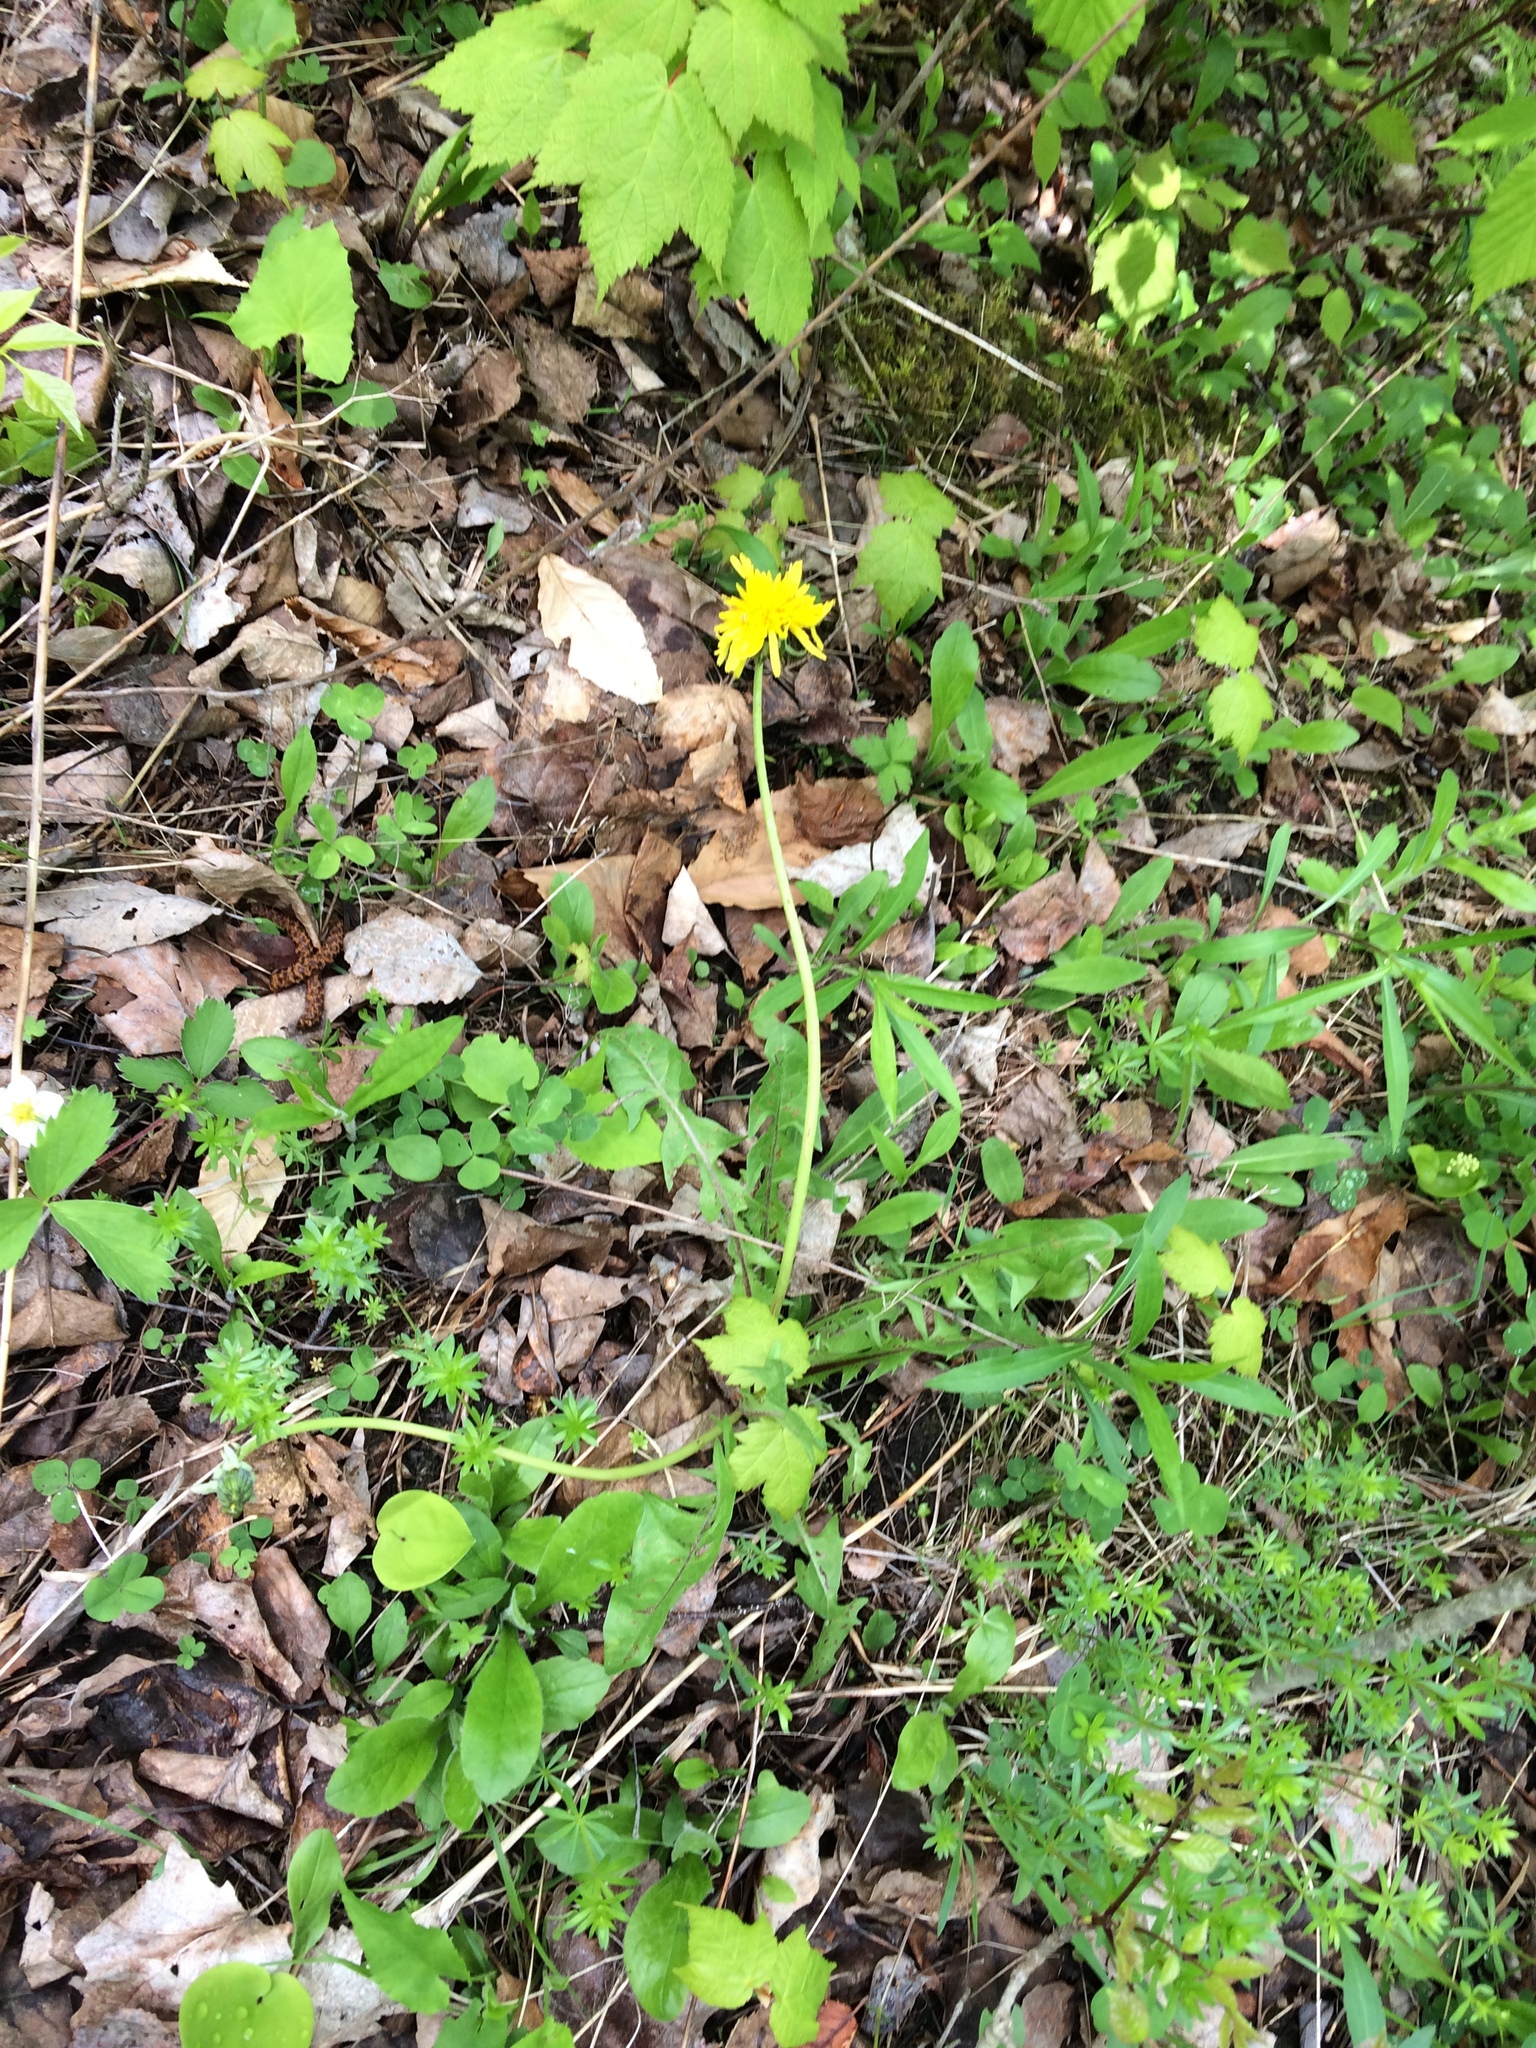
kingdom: Plantae
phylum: Tracheophyta
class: Magnoliopsida
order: Asterales
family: Asteraceae
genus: Taraxacum
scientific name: Taraxacum officinale
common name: Common dandelion
